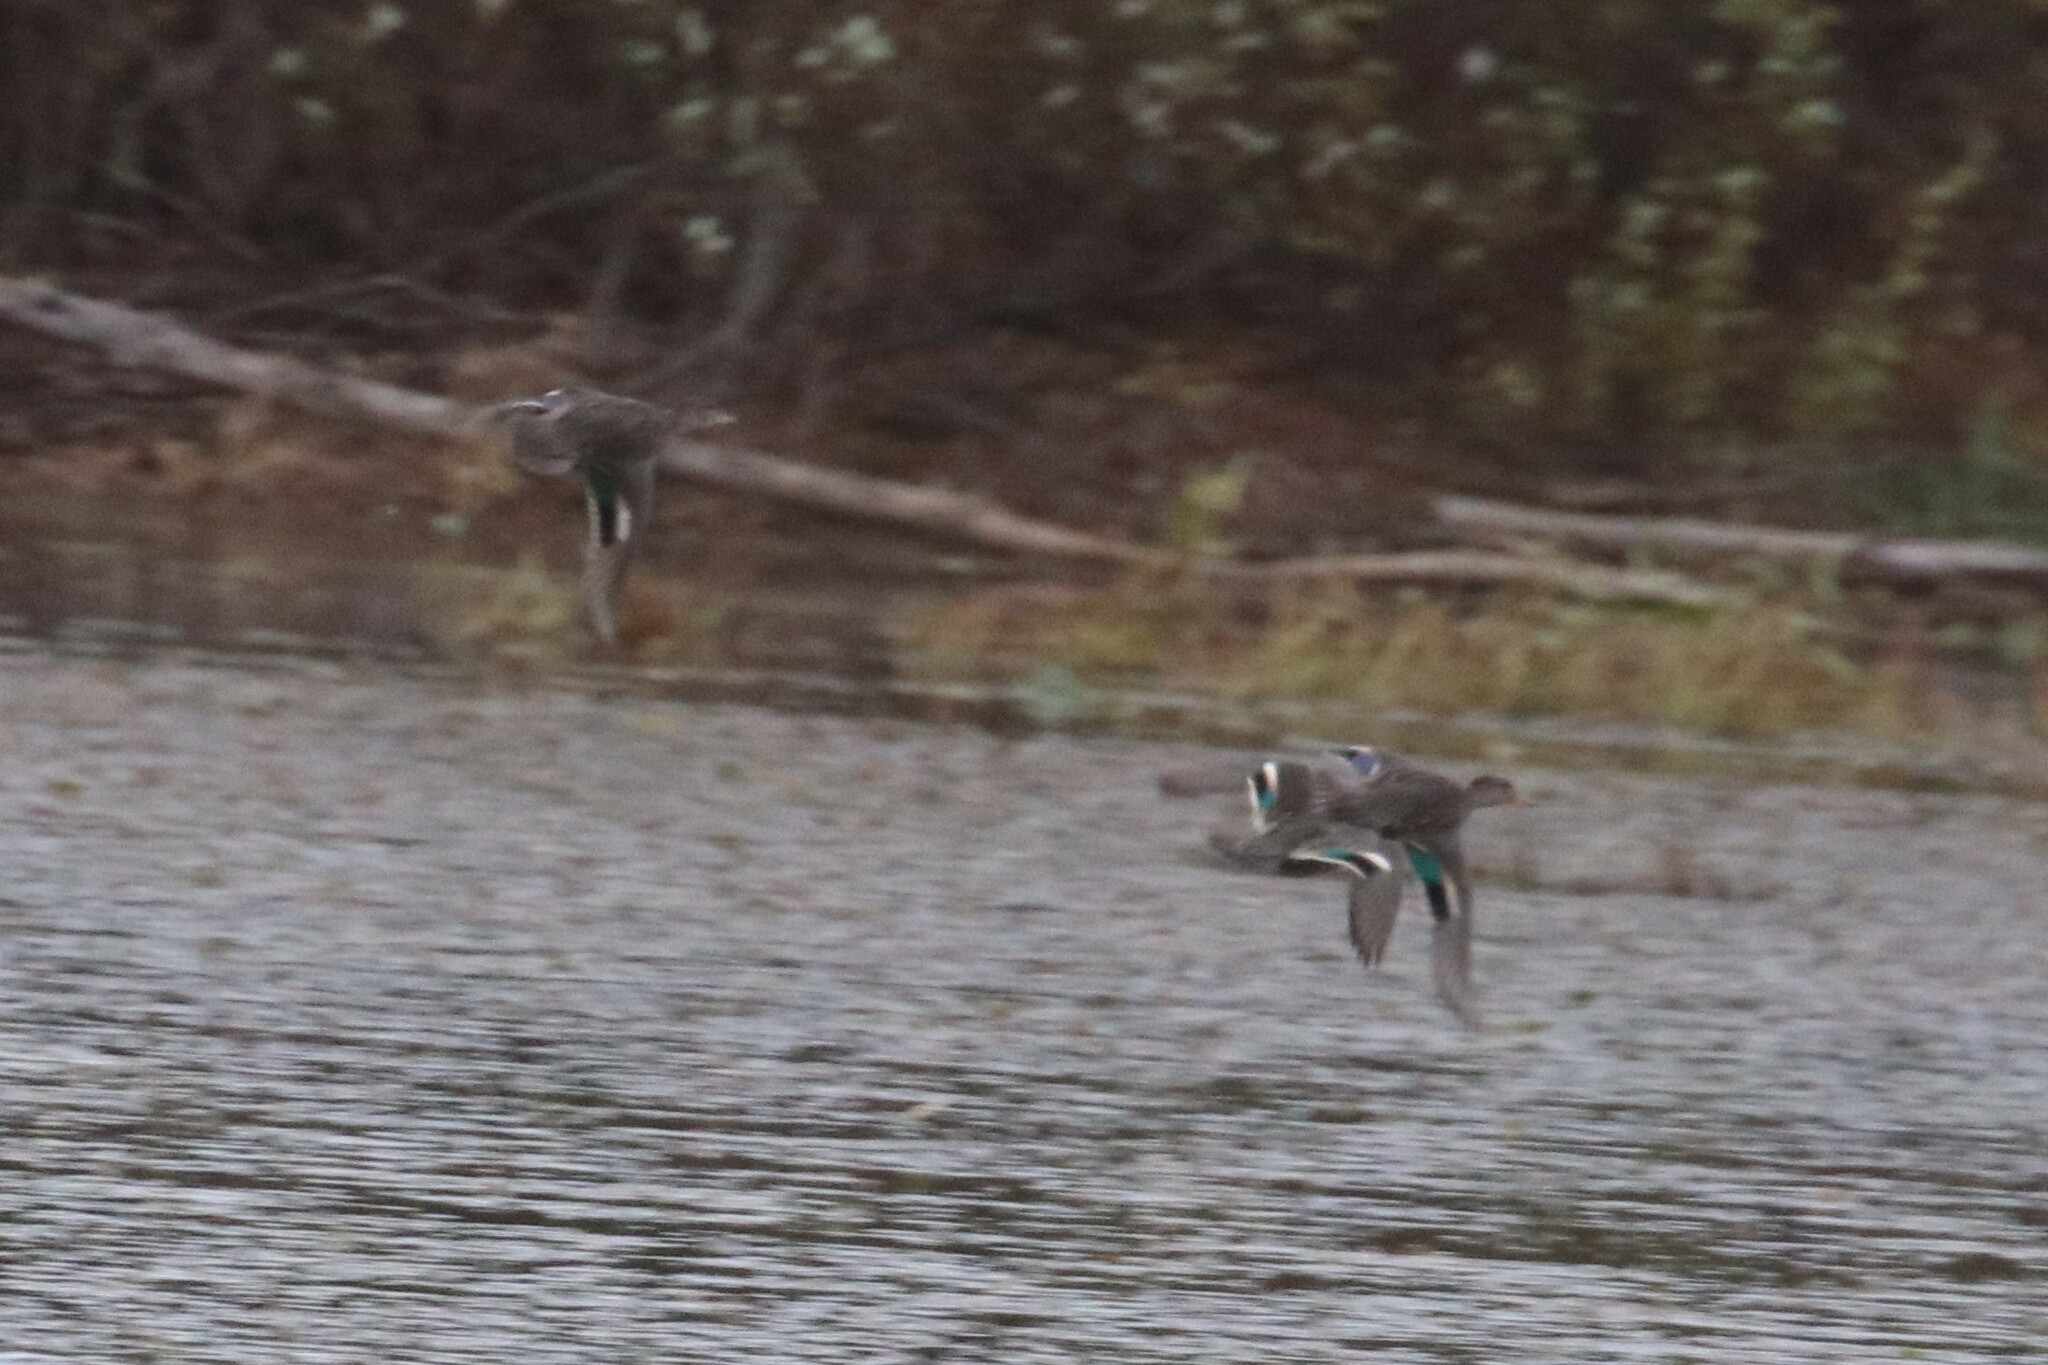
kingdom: Animalia
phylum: Chordata
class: Aves
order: Anseriformes
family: Anatidae
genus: Anas
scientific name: Anas crecca
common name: Eurasian teal
